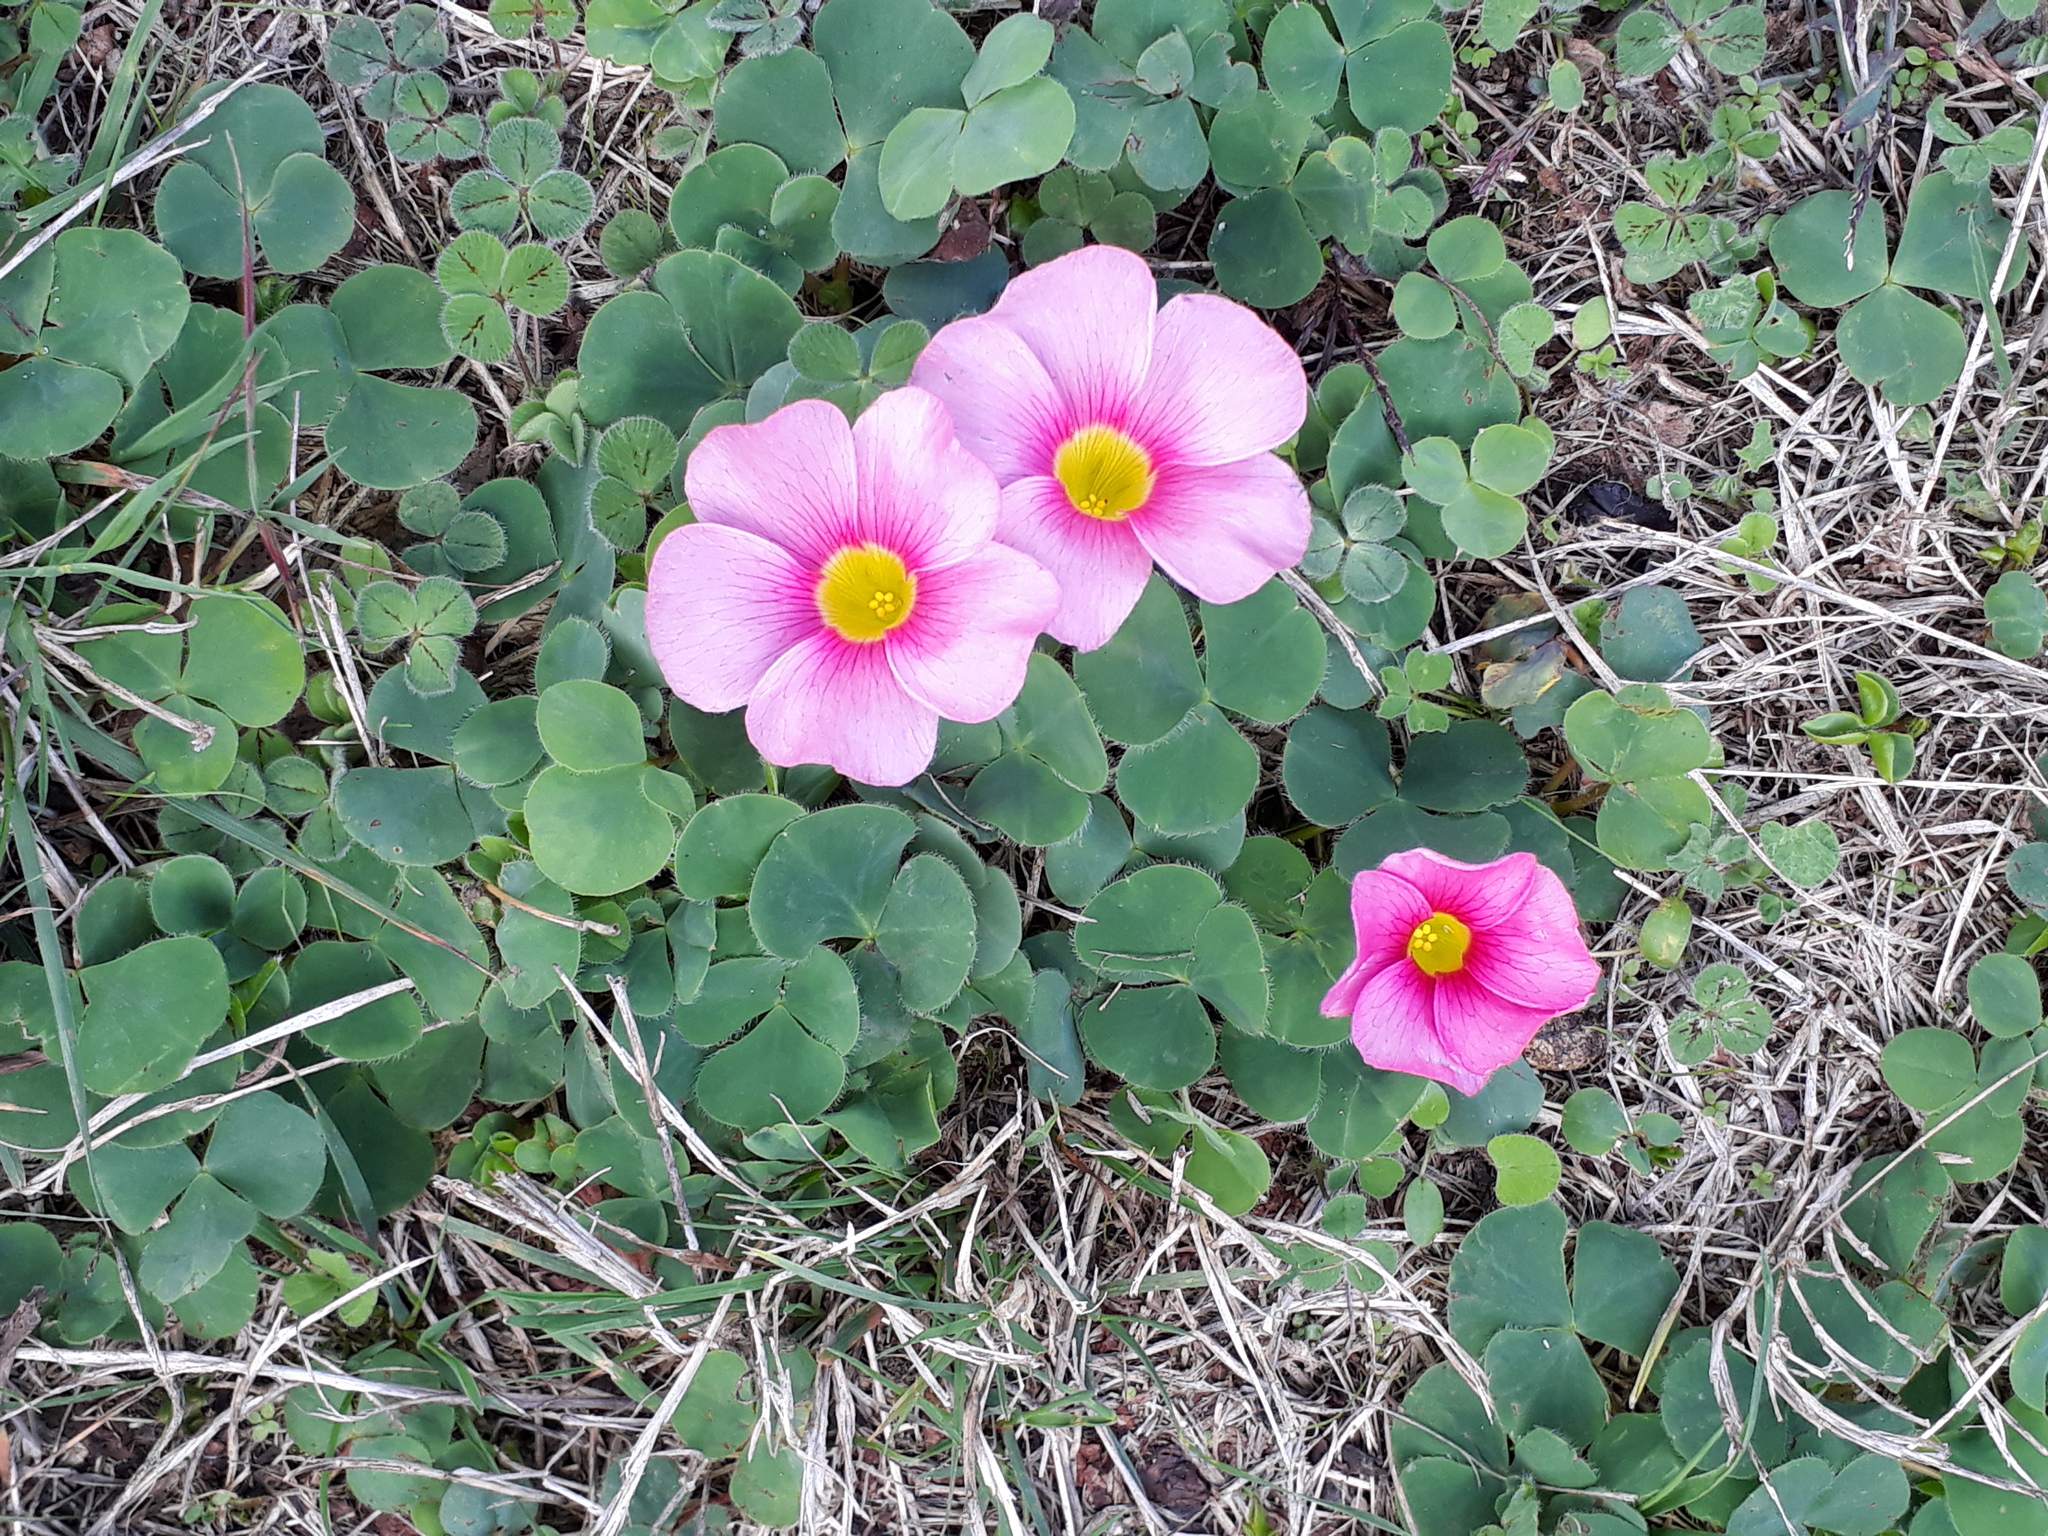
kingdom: Plantae
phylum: Tracheophyta
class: Magnoliopsida
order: Oxalidales
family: Oxalidaceae
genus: Oxalis
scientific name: Oxalis purpurea
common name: Purple woodsorrel
